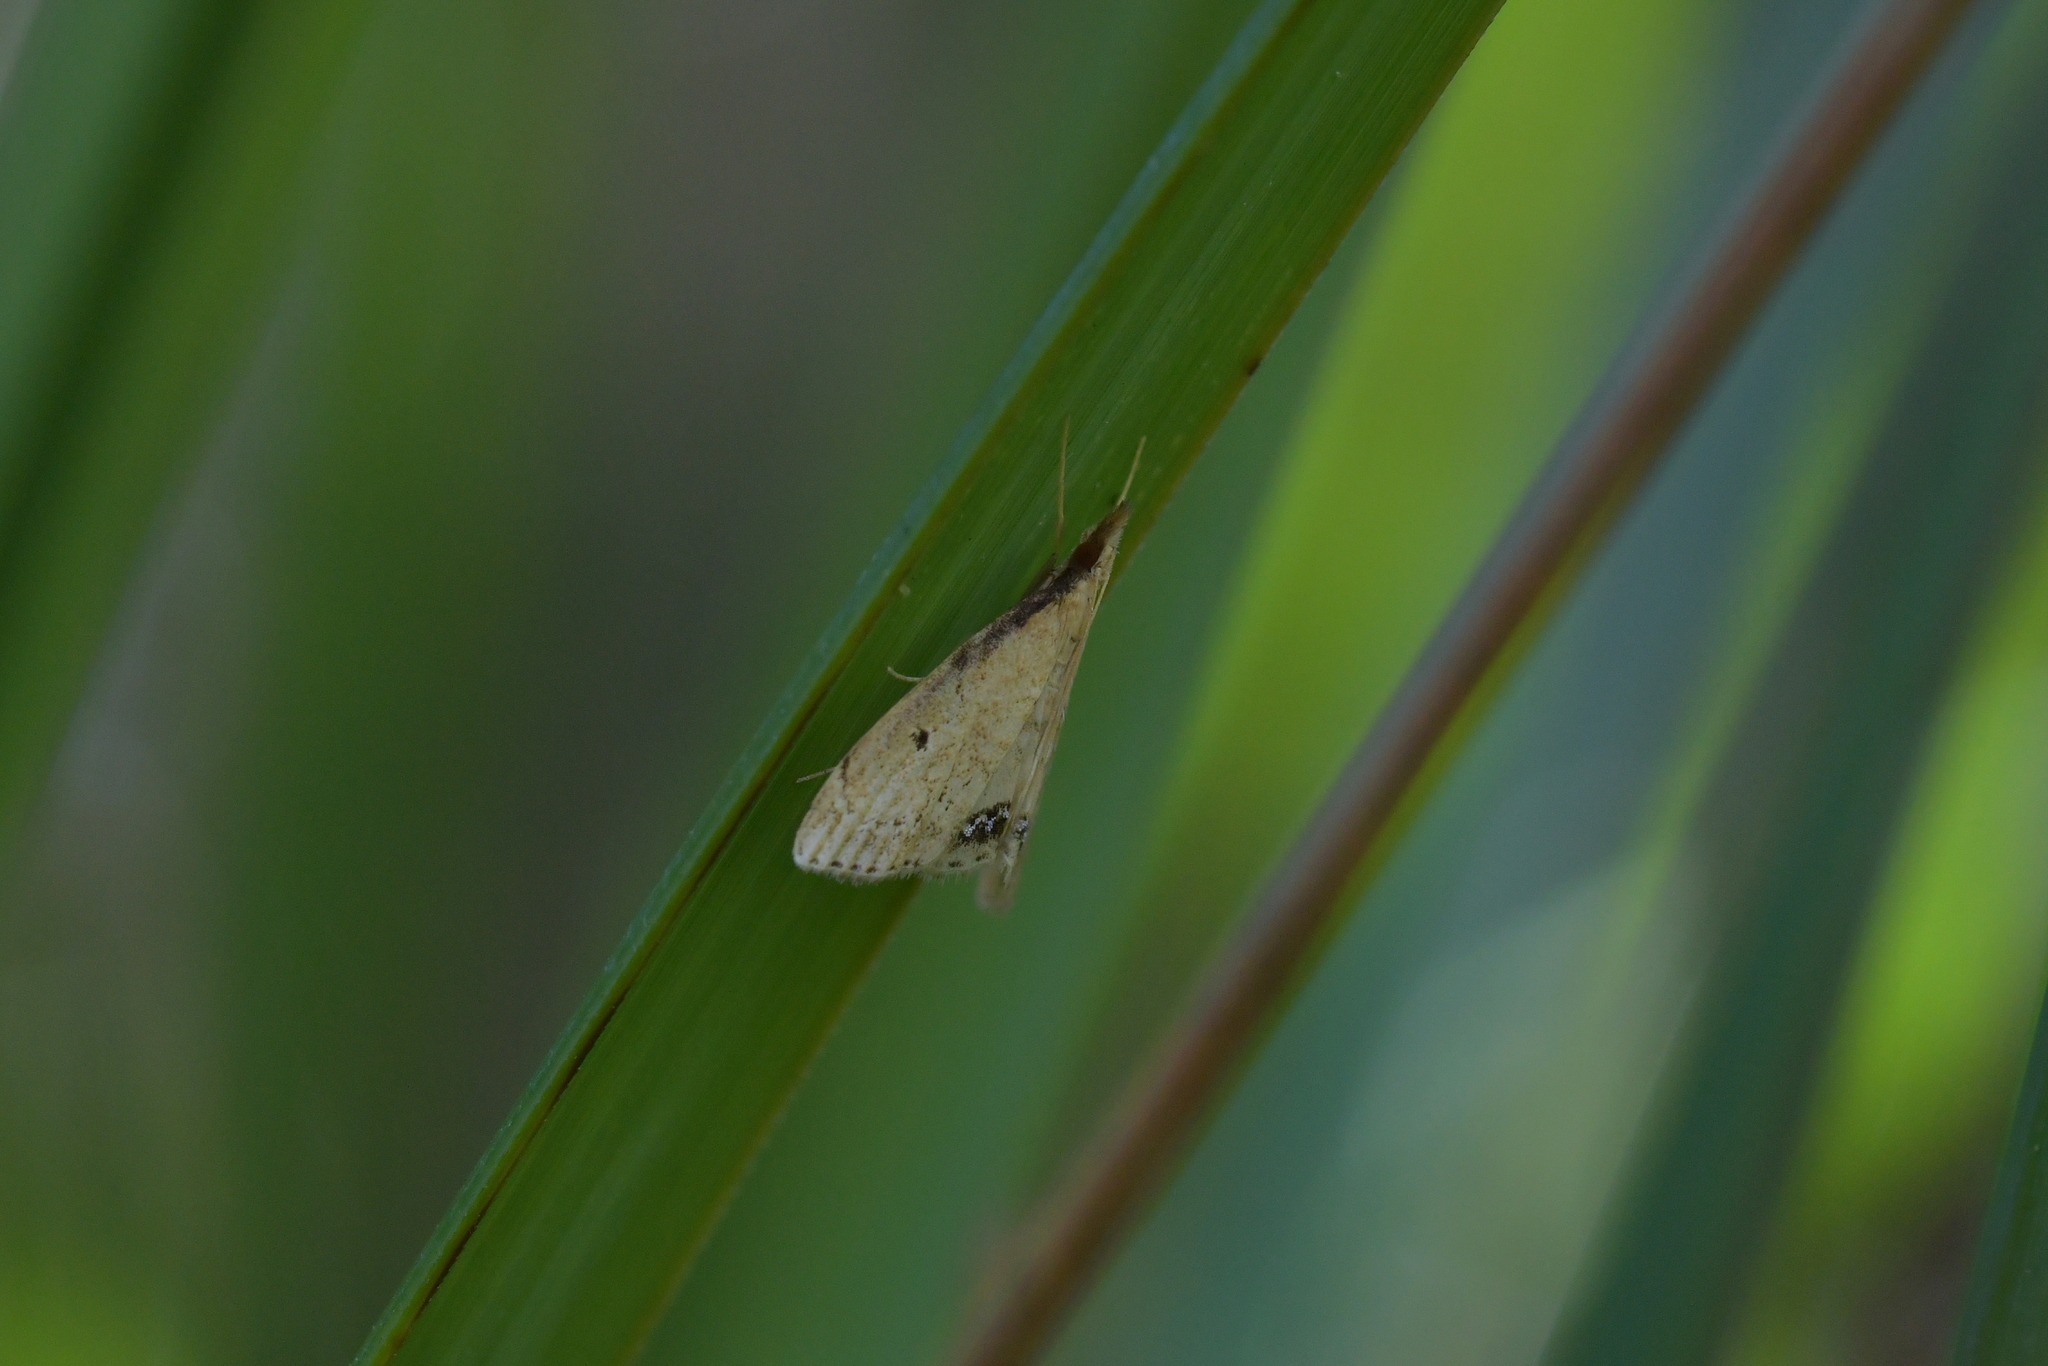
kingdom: Animalia
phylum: Arthropoda
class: Insecta
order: Lepidoptera
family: Crambidae
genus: Clepsicosma
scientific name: Clepsicosma iridia
